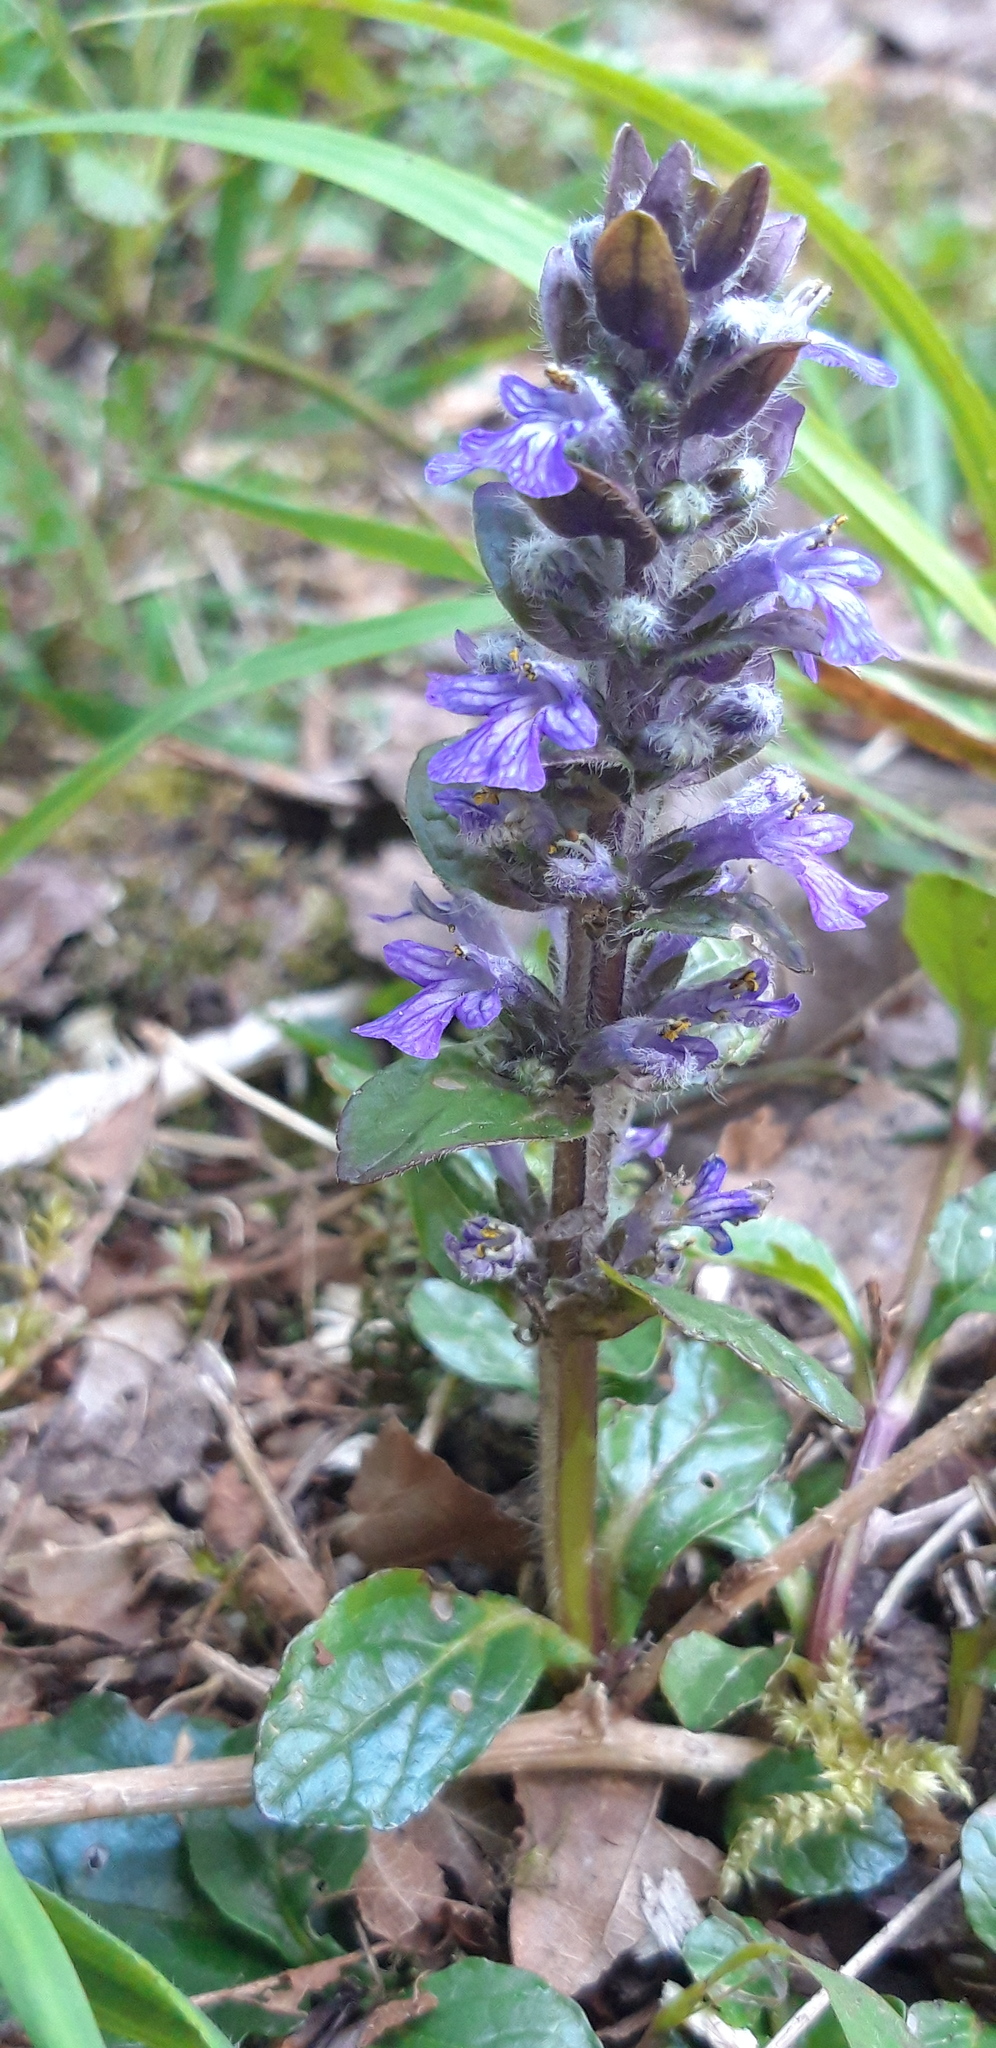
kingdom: Plantae
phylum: Tracheophyta
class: Magnoliopsida
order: Lamiales
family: Lamiaceae
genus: Ajuga
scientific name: Ajuga reptans
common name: Bugle
